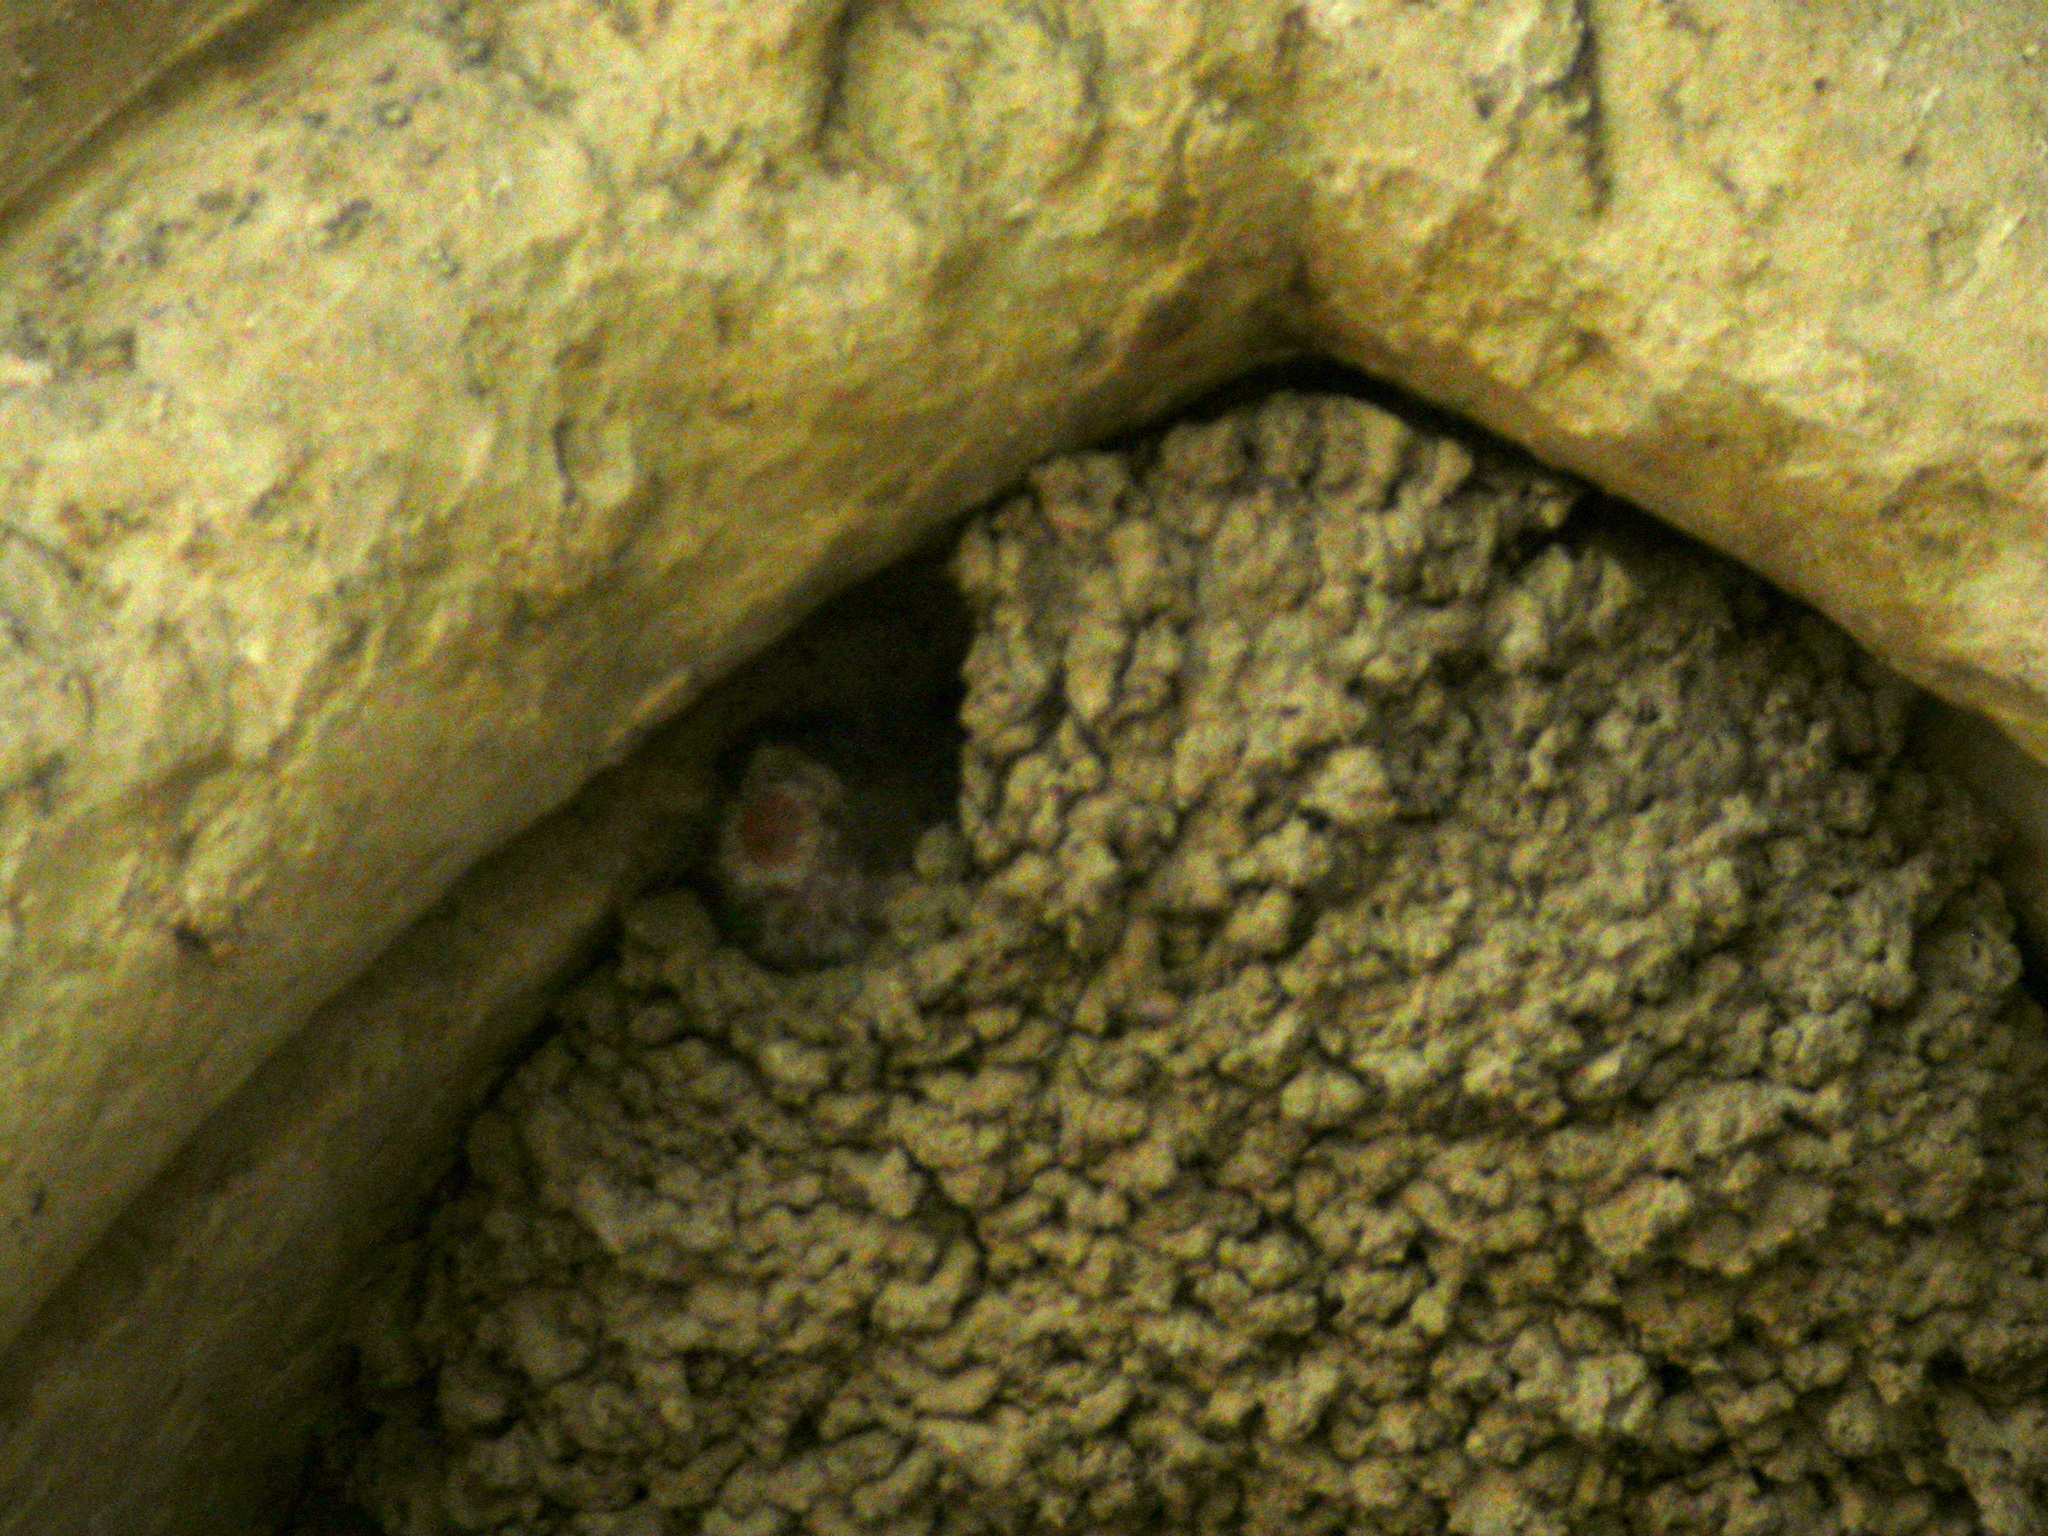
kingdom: Animalia
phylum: Chordata
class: Aves
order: Passeriformes
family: Hirundinidae
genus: Delichon
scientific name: Delichon urbicum
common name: Common house martin
